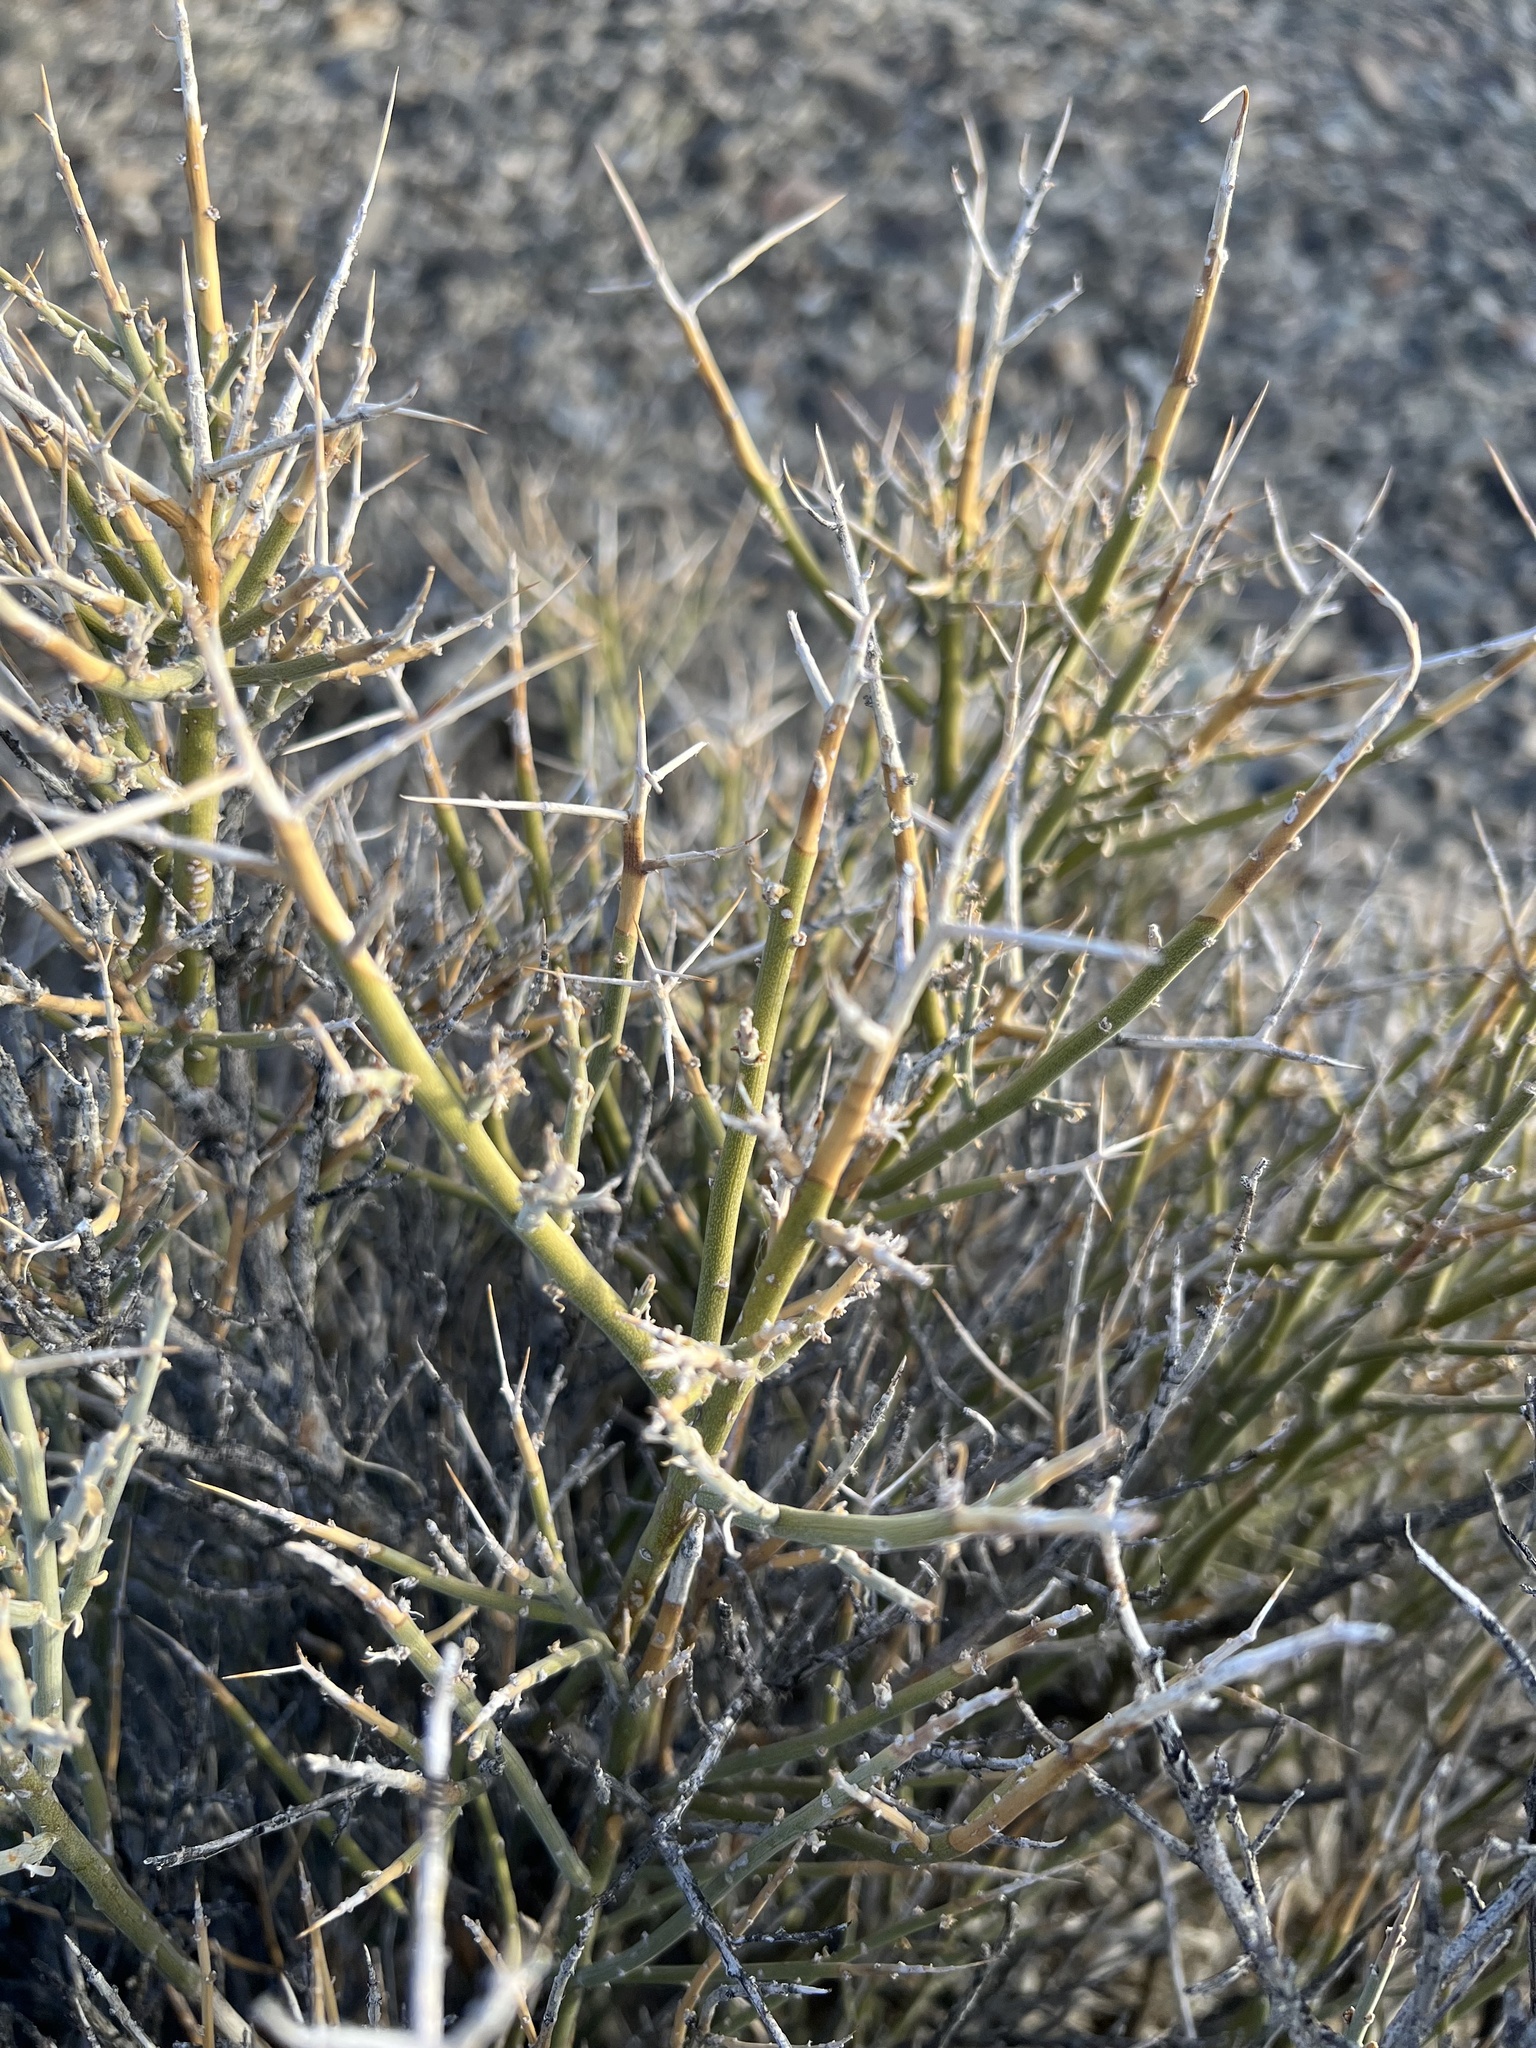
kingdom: Plantae
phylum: Tracheophyta
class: Magnoliopsida
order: Lamiales
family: Oleaceae
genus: Menodora
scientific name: Menodora spinescens
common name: Spiny menodora
